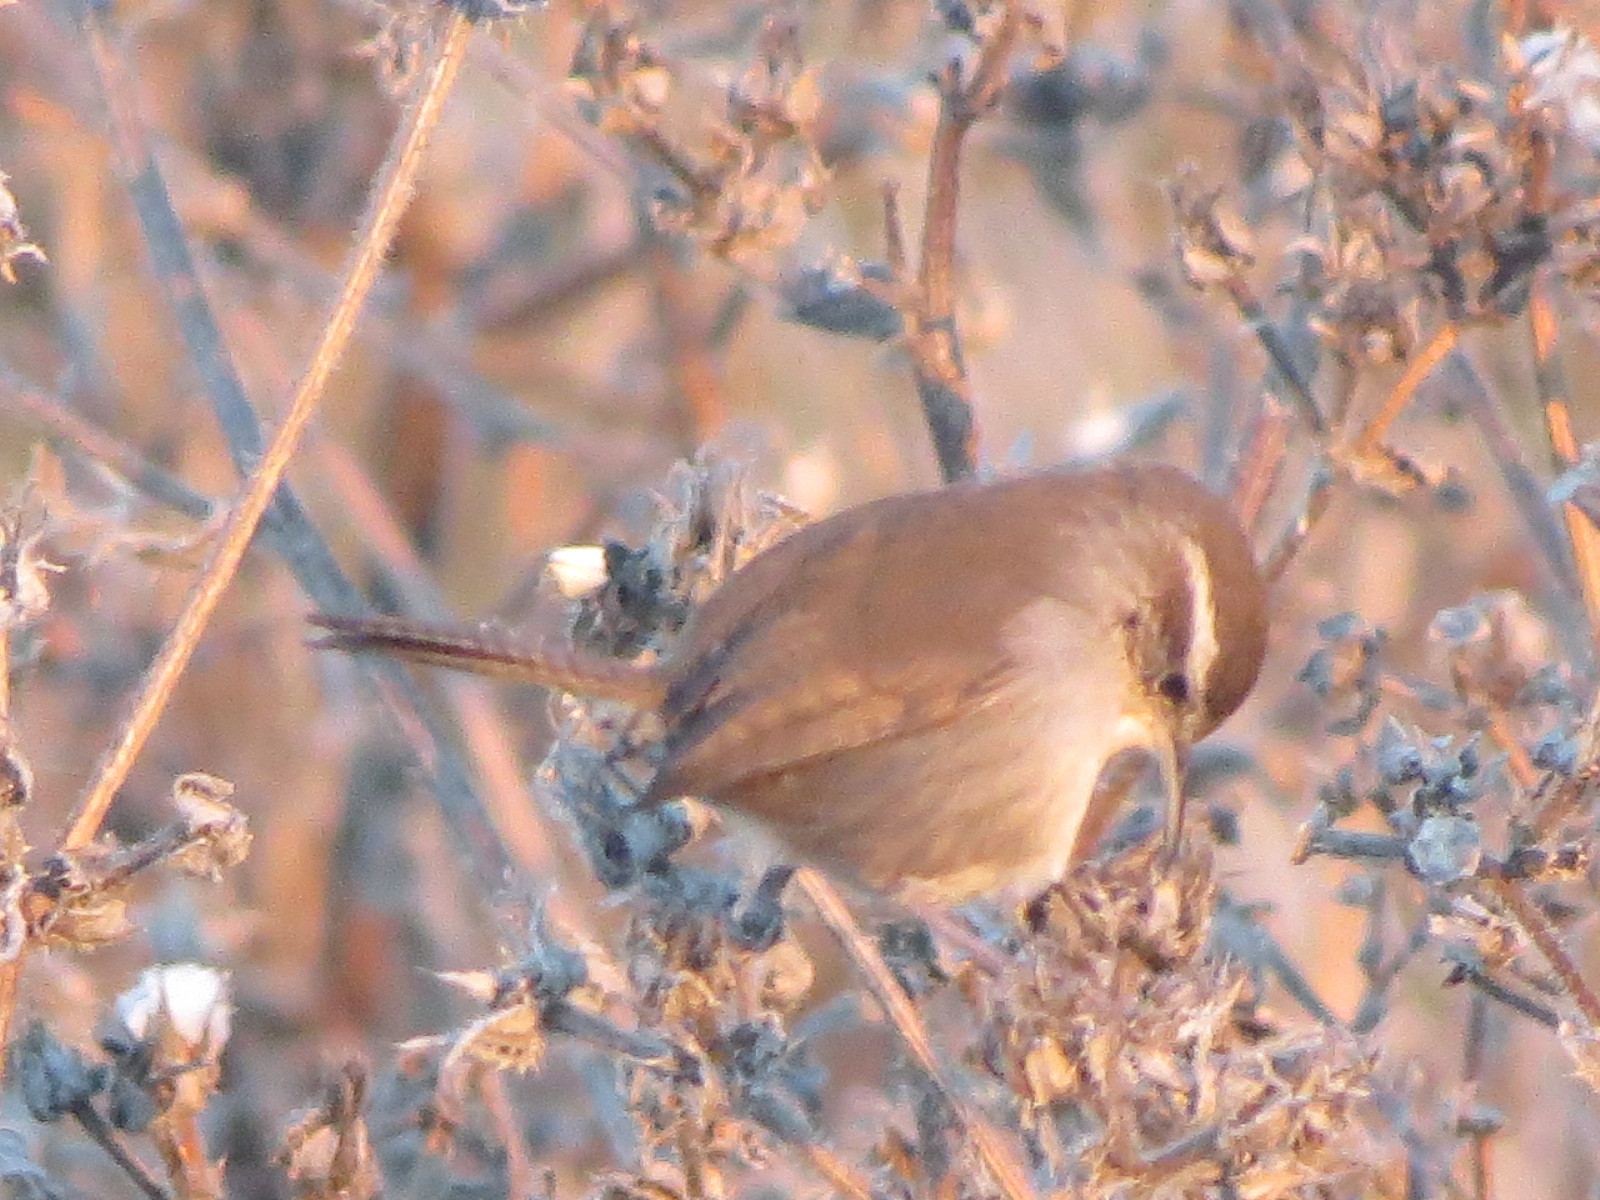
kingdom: Animalia
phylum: Chordata
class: Aves
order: Passeriformes
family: Troglodytidae
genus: Thryomanes
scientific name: Thryomanes bewickii
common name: Bewick's wren
